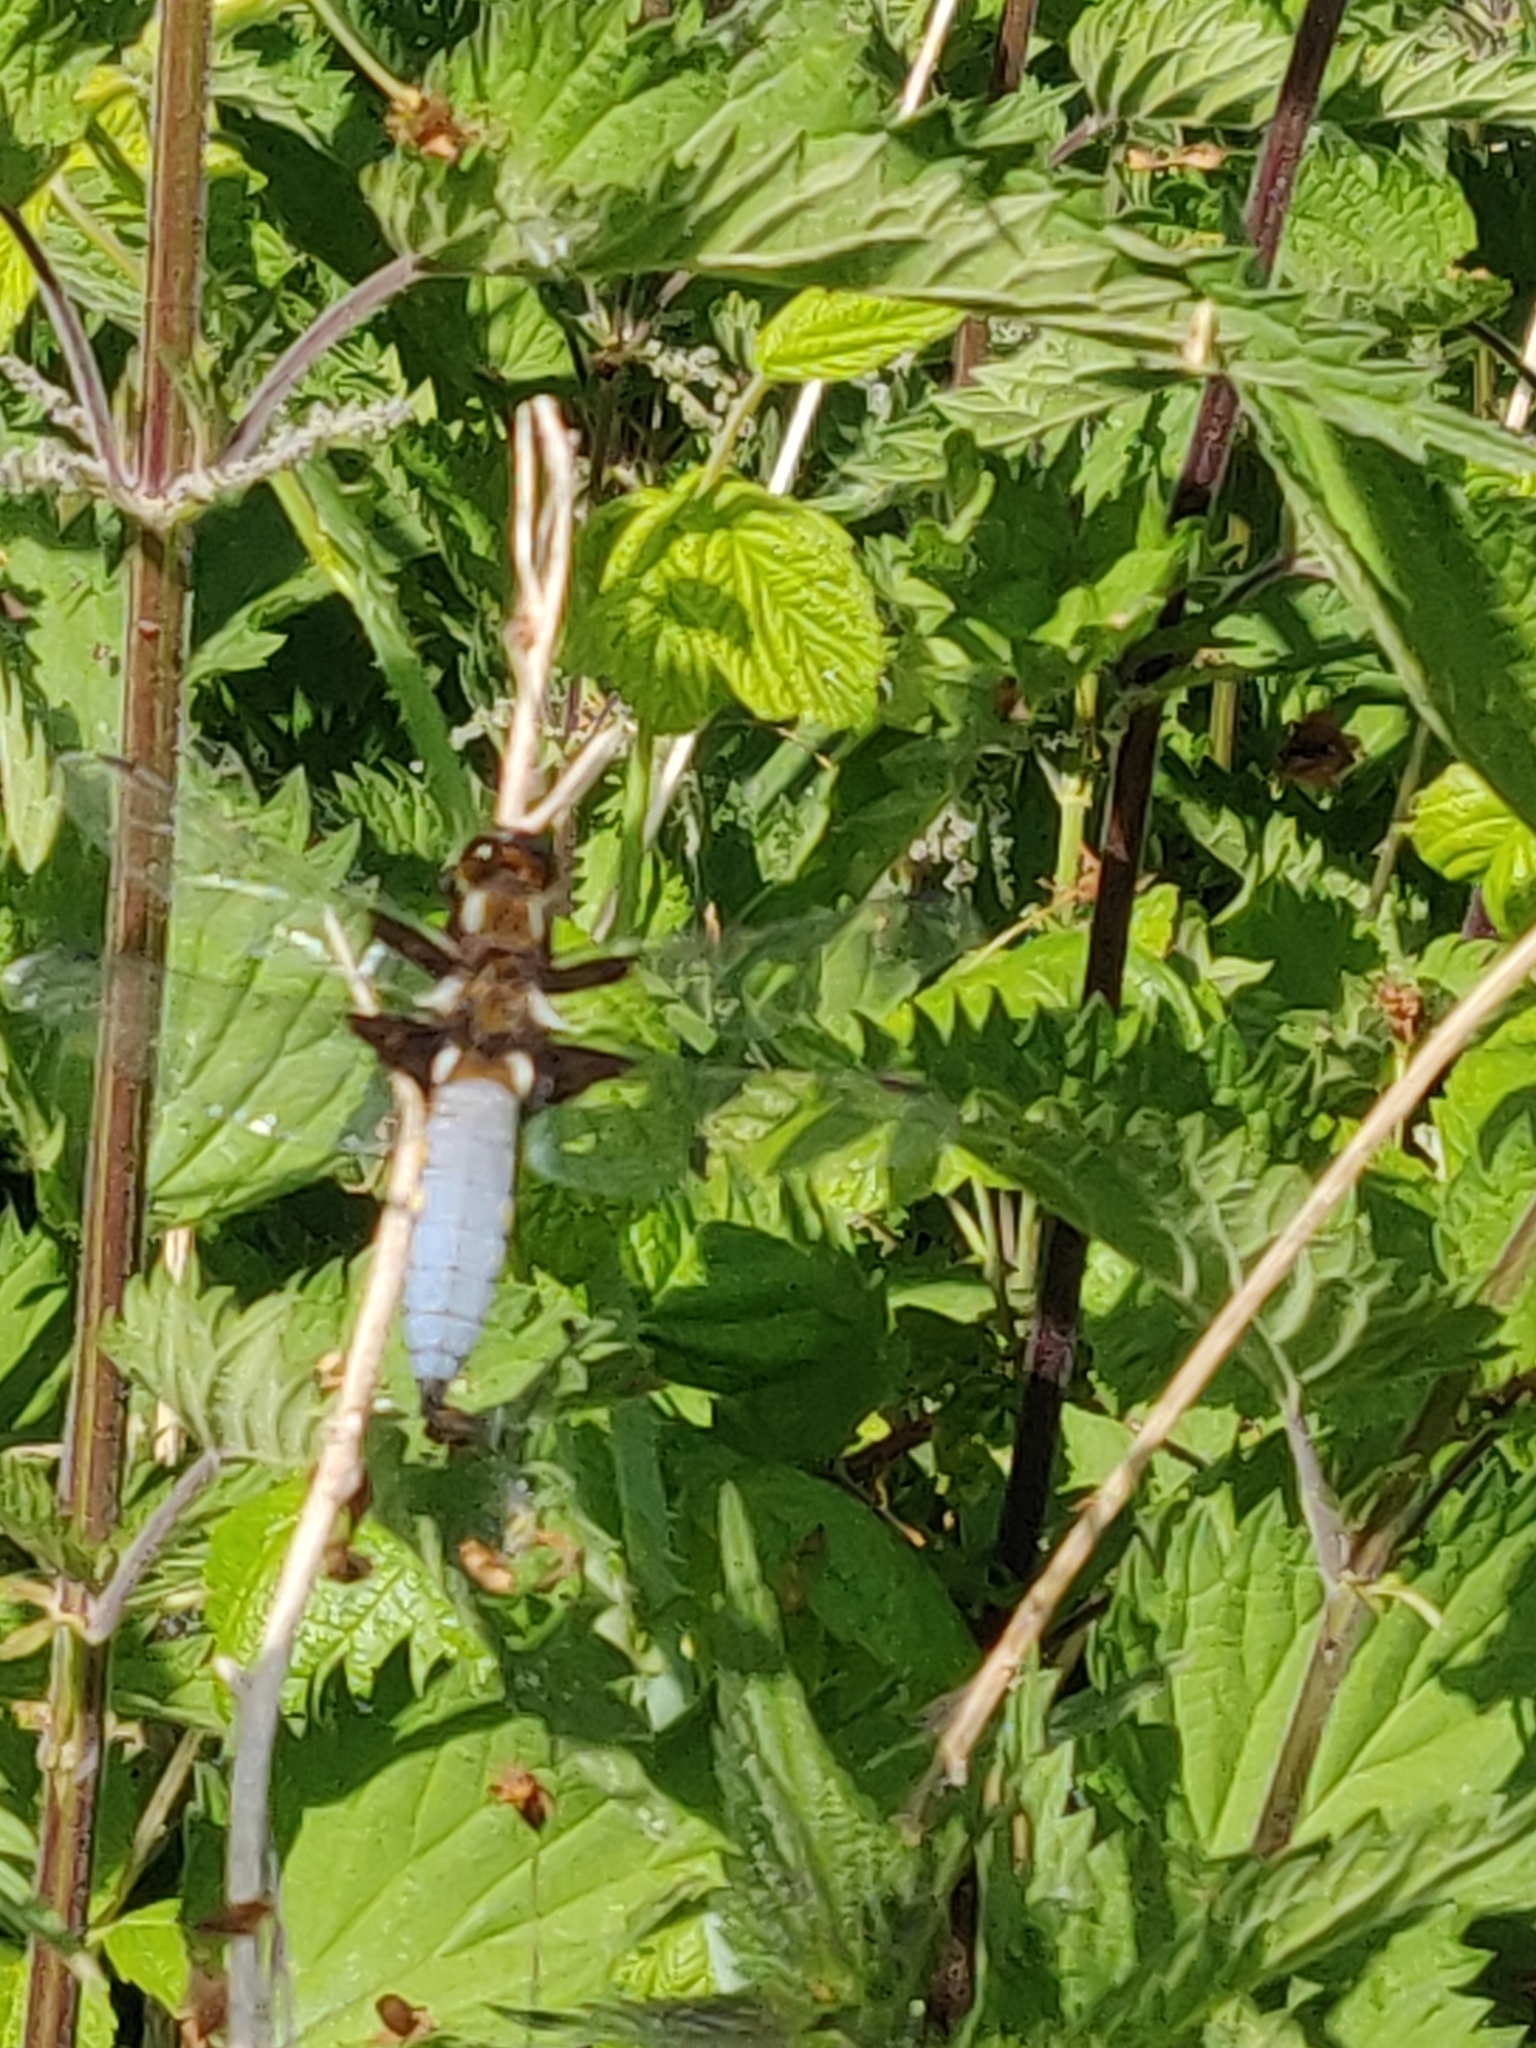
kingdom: Animalia
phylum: Arthropoda
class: Insecta
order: Odonata
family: Libellulidae
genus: Libellula
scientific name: Libellula depressa
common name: Broad-bodied chaser
